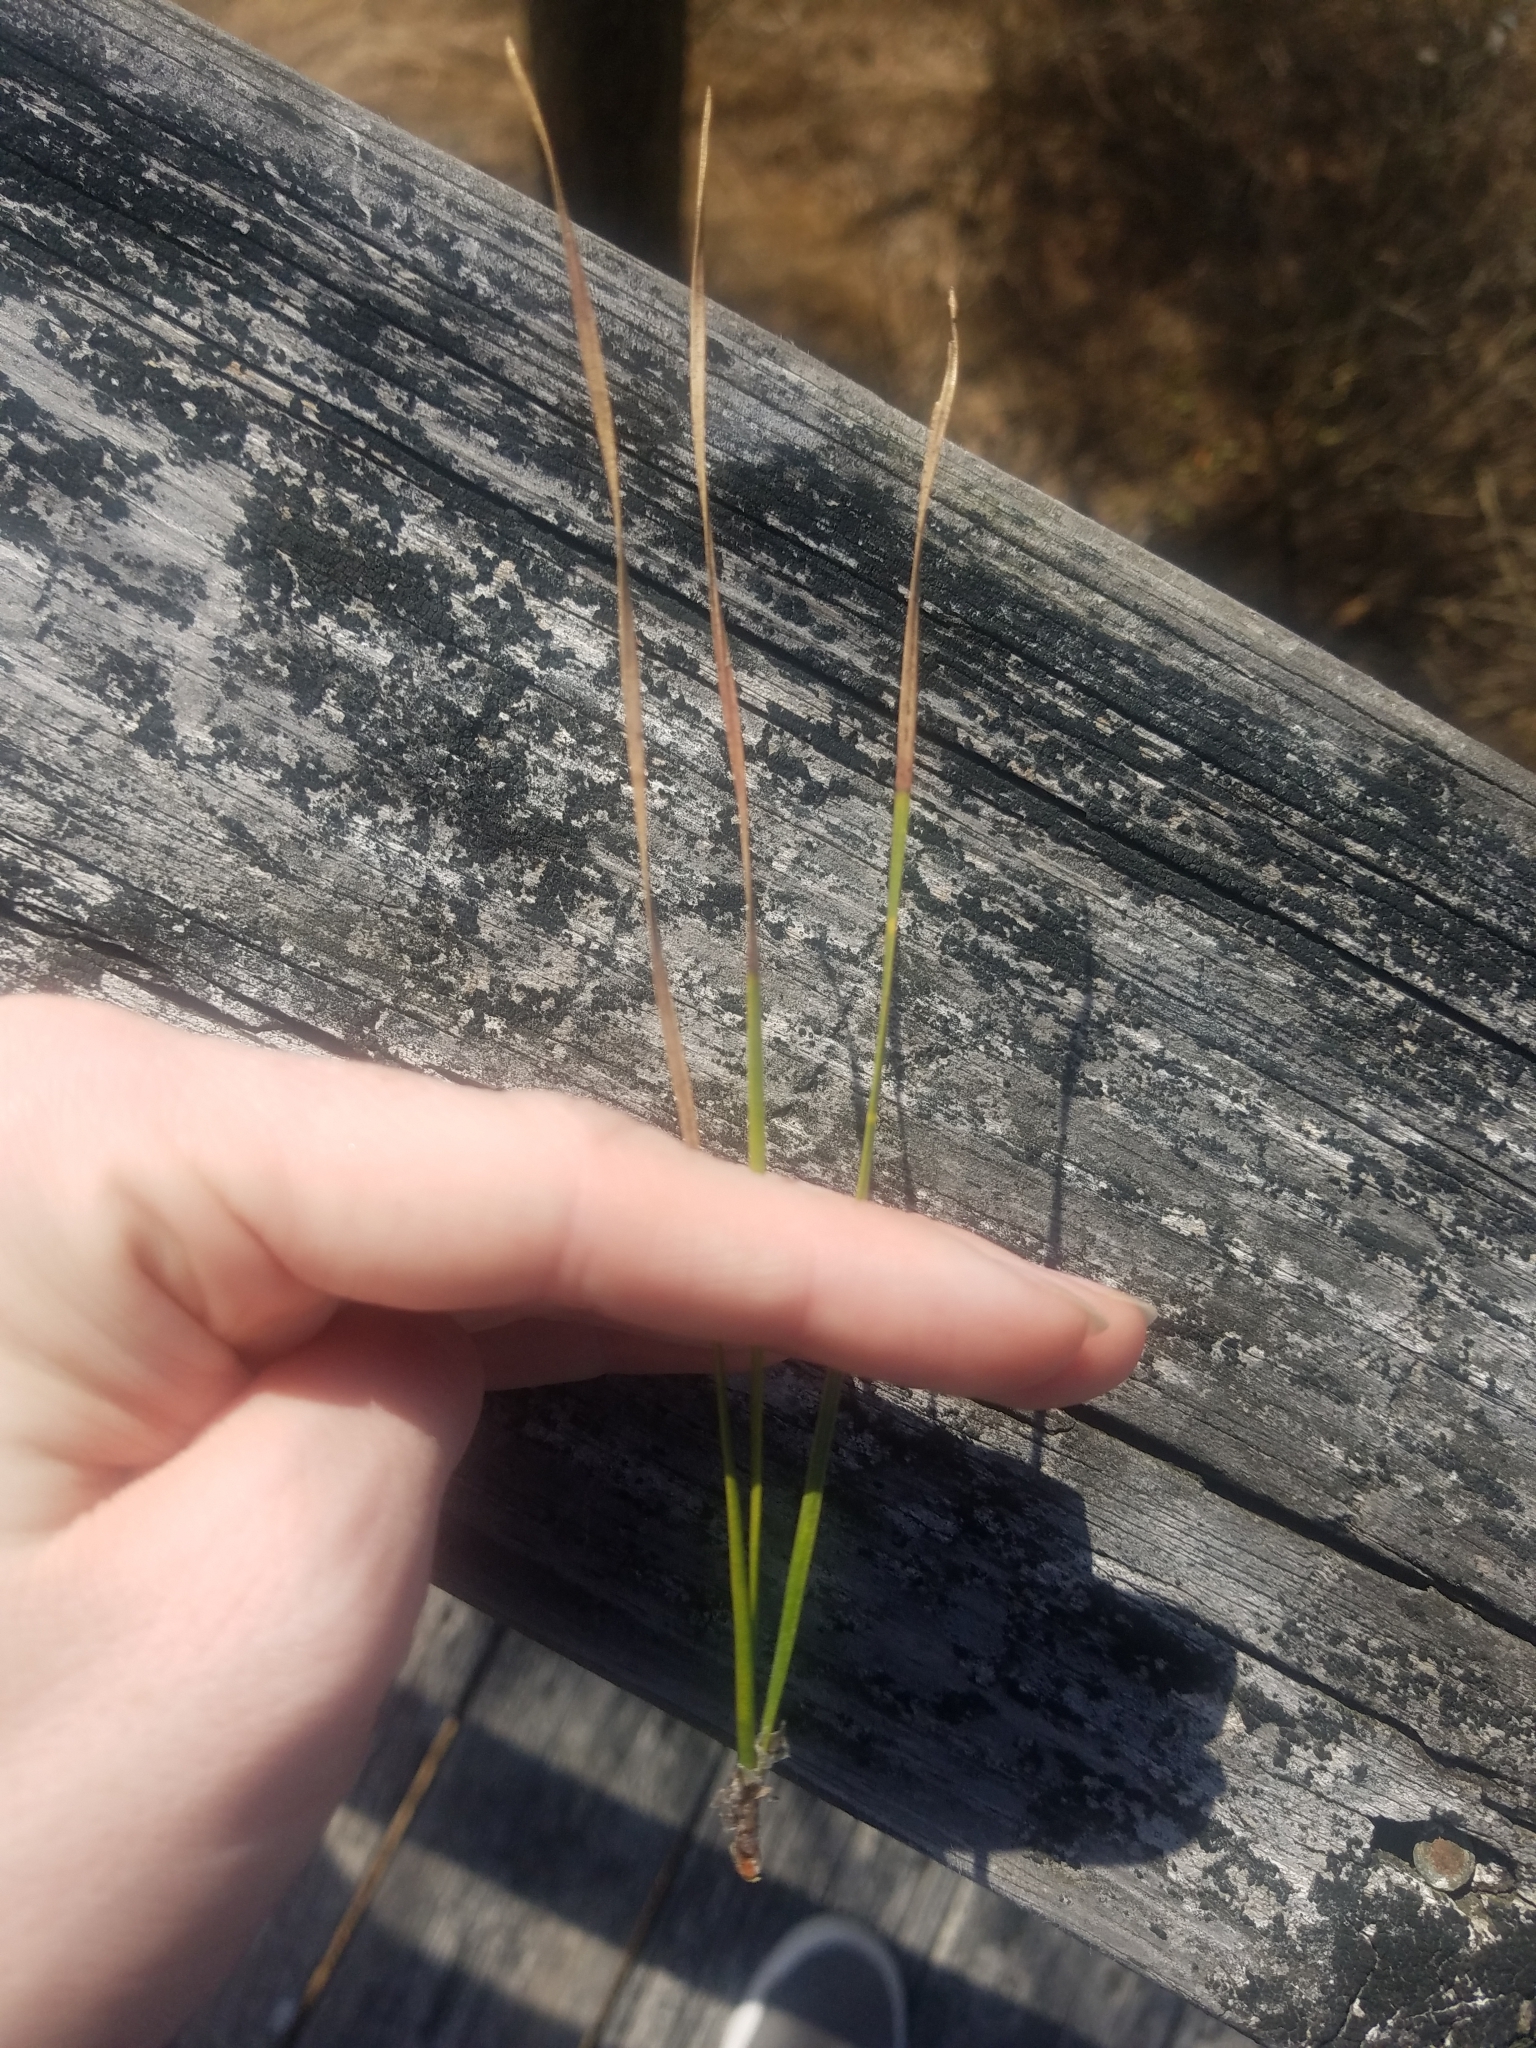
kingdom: Plantae
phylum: Tracheophyta
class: Pinopsida
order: Pinales
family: Pinaceae
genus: Pinus
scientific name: Pinus taeda
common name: Loblolly pine
